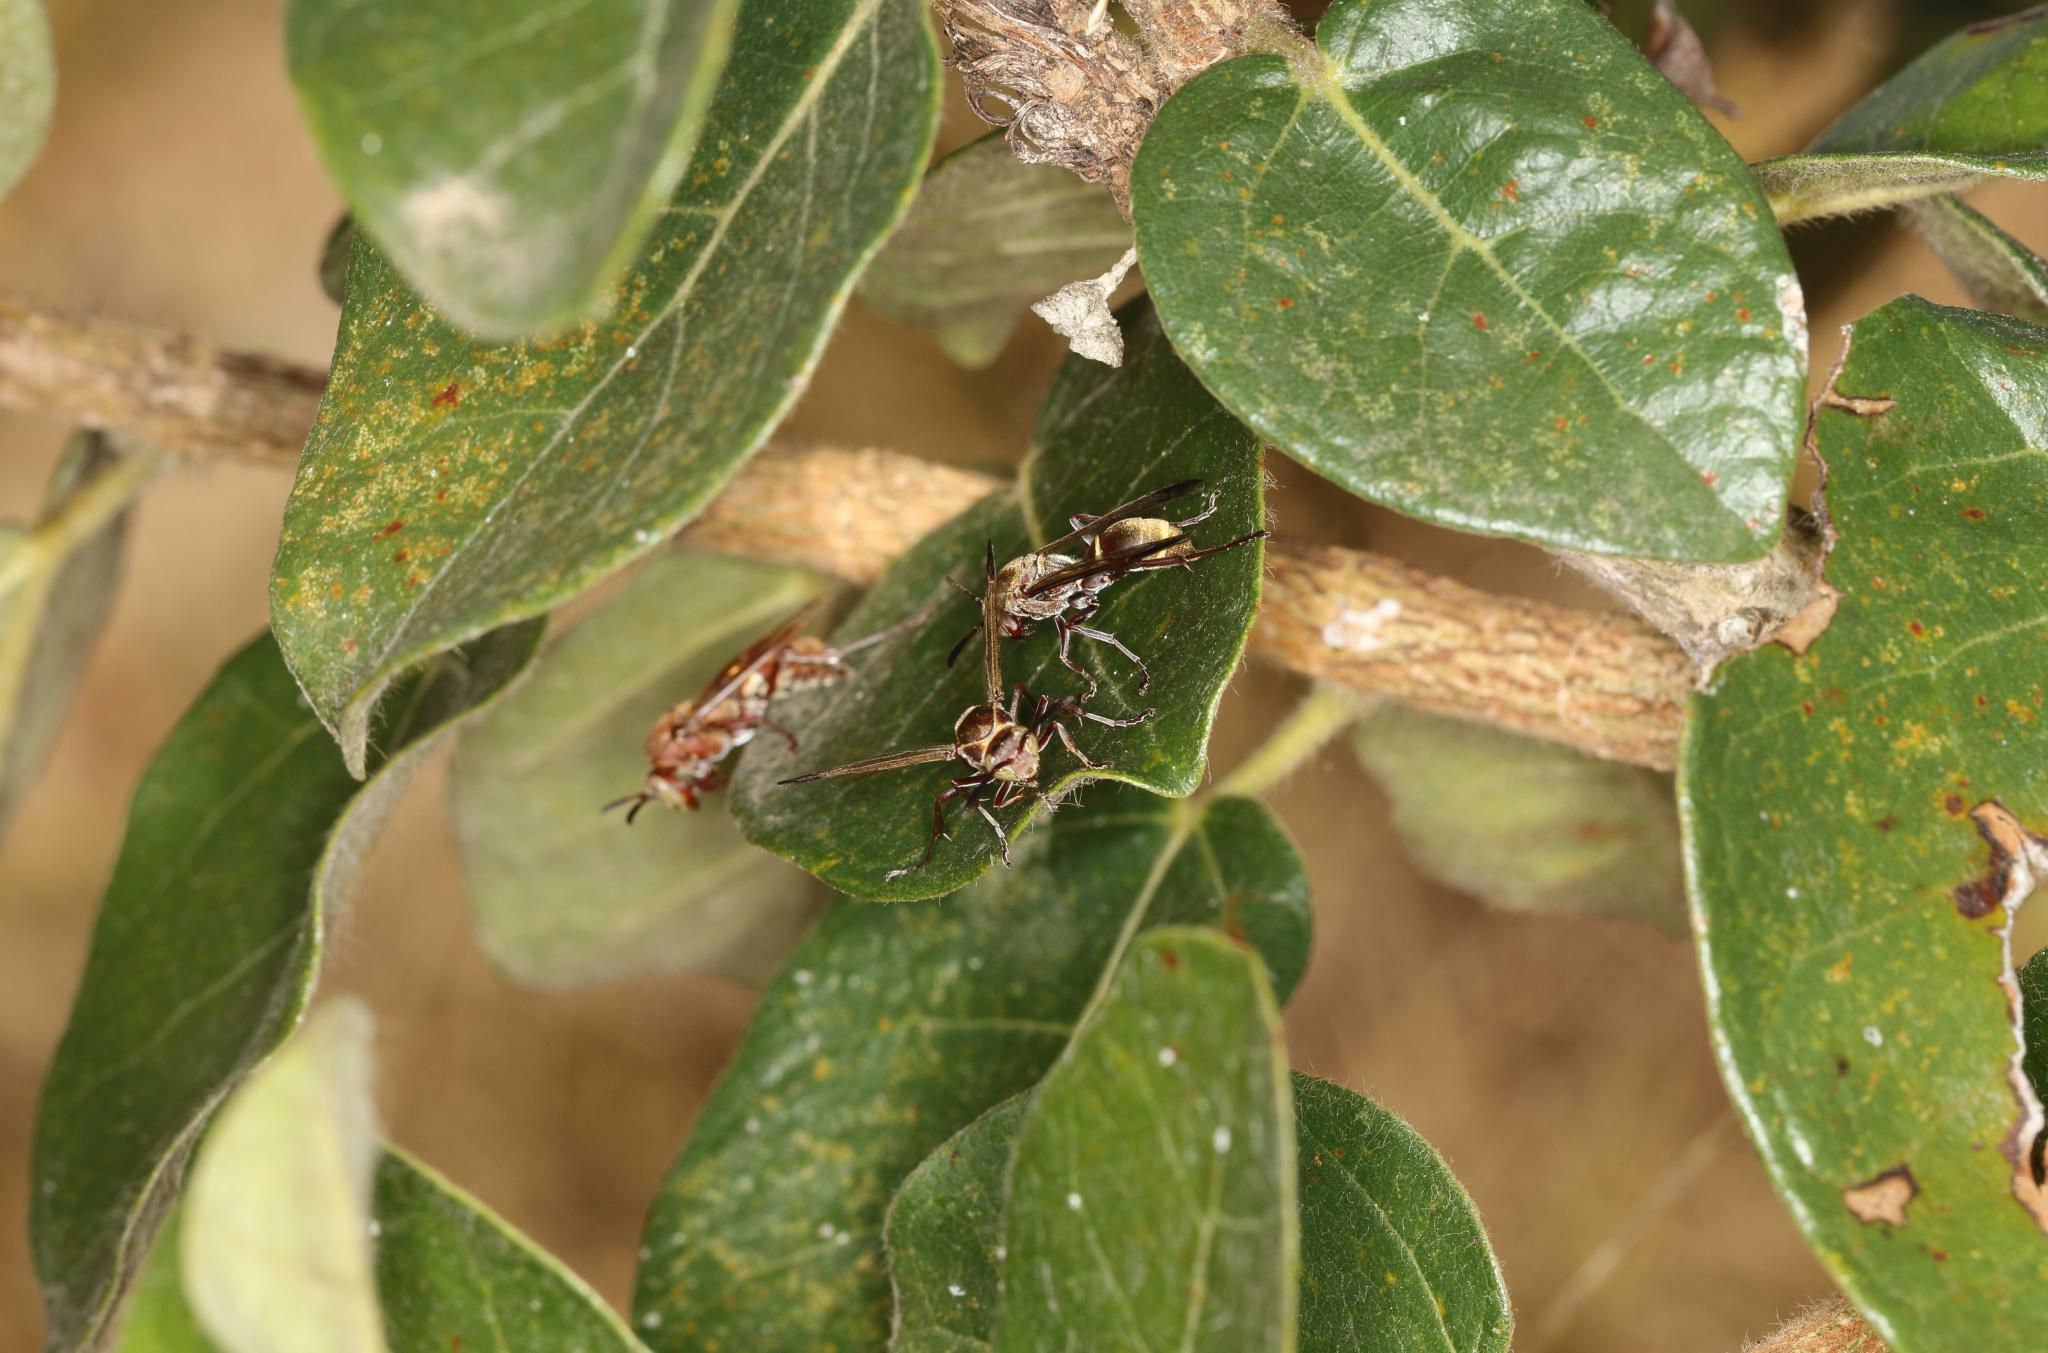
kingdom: Plantae
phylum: Tracheophyta
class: Magnoliopsida
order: Rosales
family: Moraceae
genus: Ficus
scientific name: Ficus glumosa
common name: Hairy rock fig
